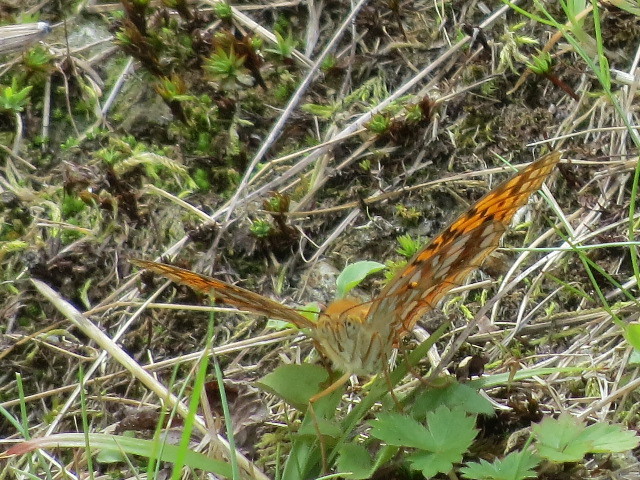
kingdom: Animalia
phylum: Arthropoda
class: Insecta
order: Lepidoptera
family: Nymphalidae
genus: Fabriciana
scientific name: Fabriciana adippe
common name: High brown fritillary
